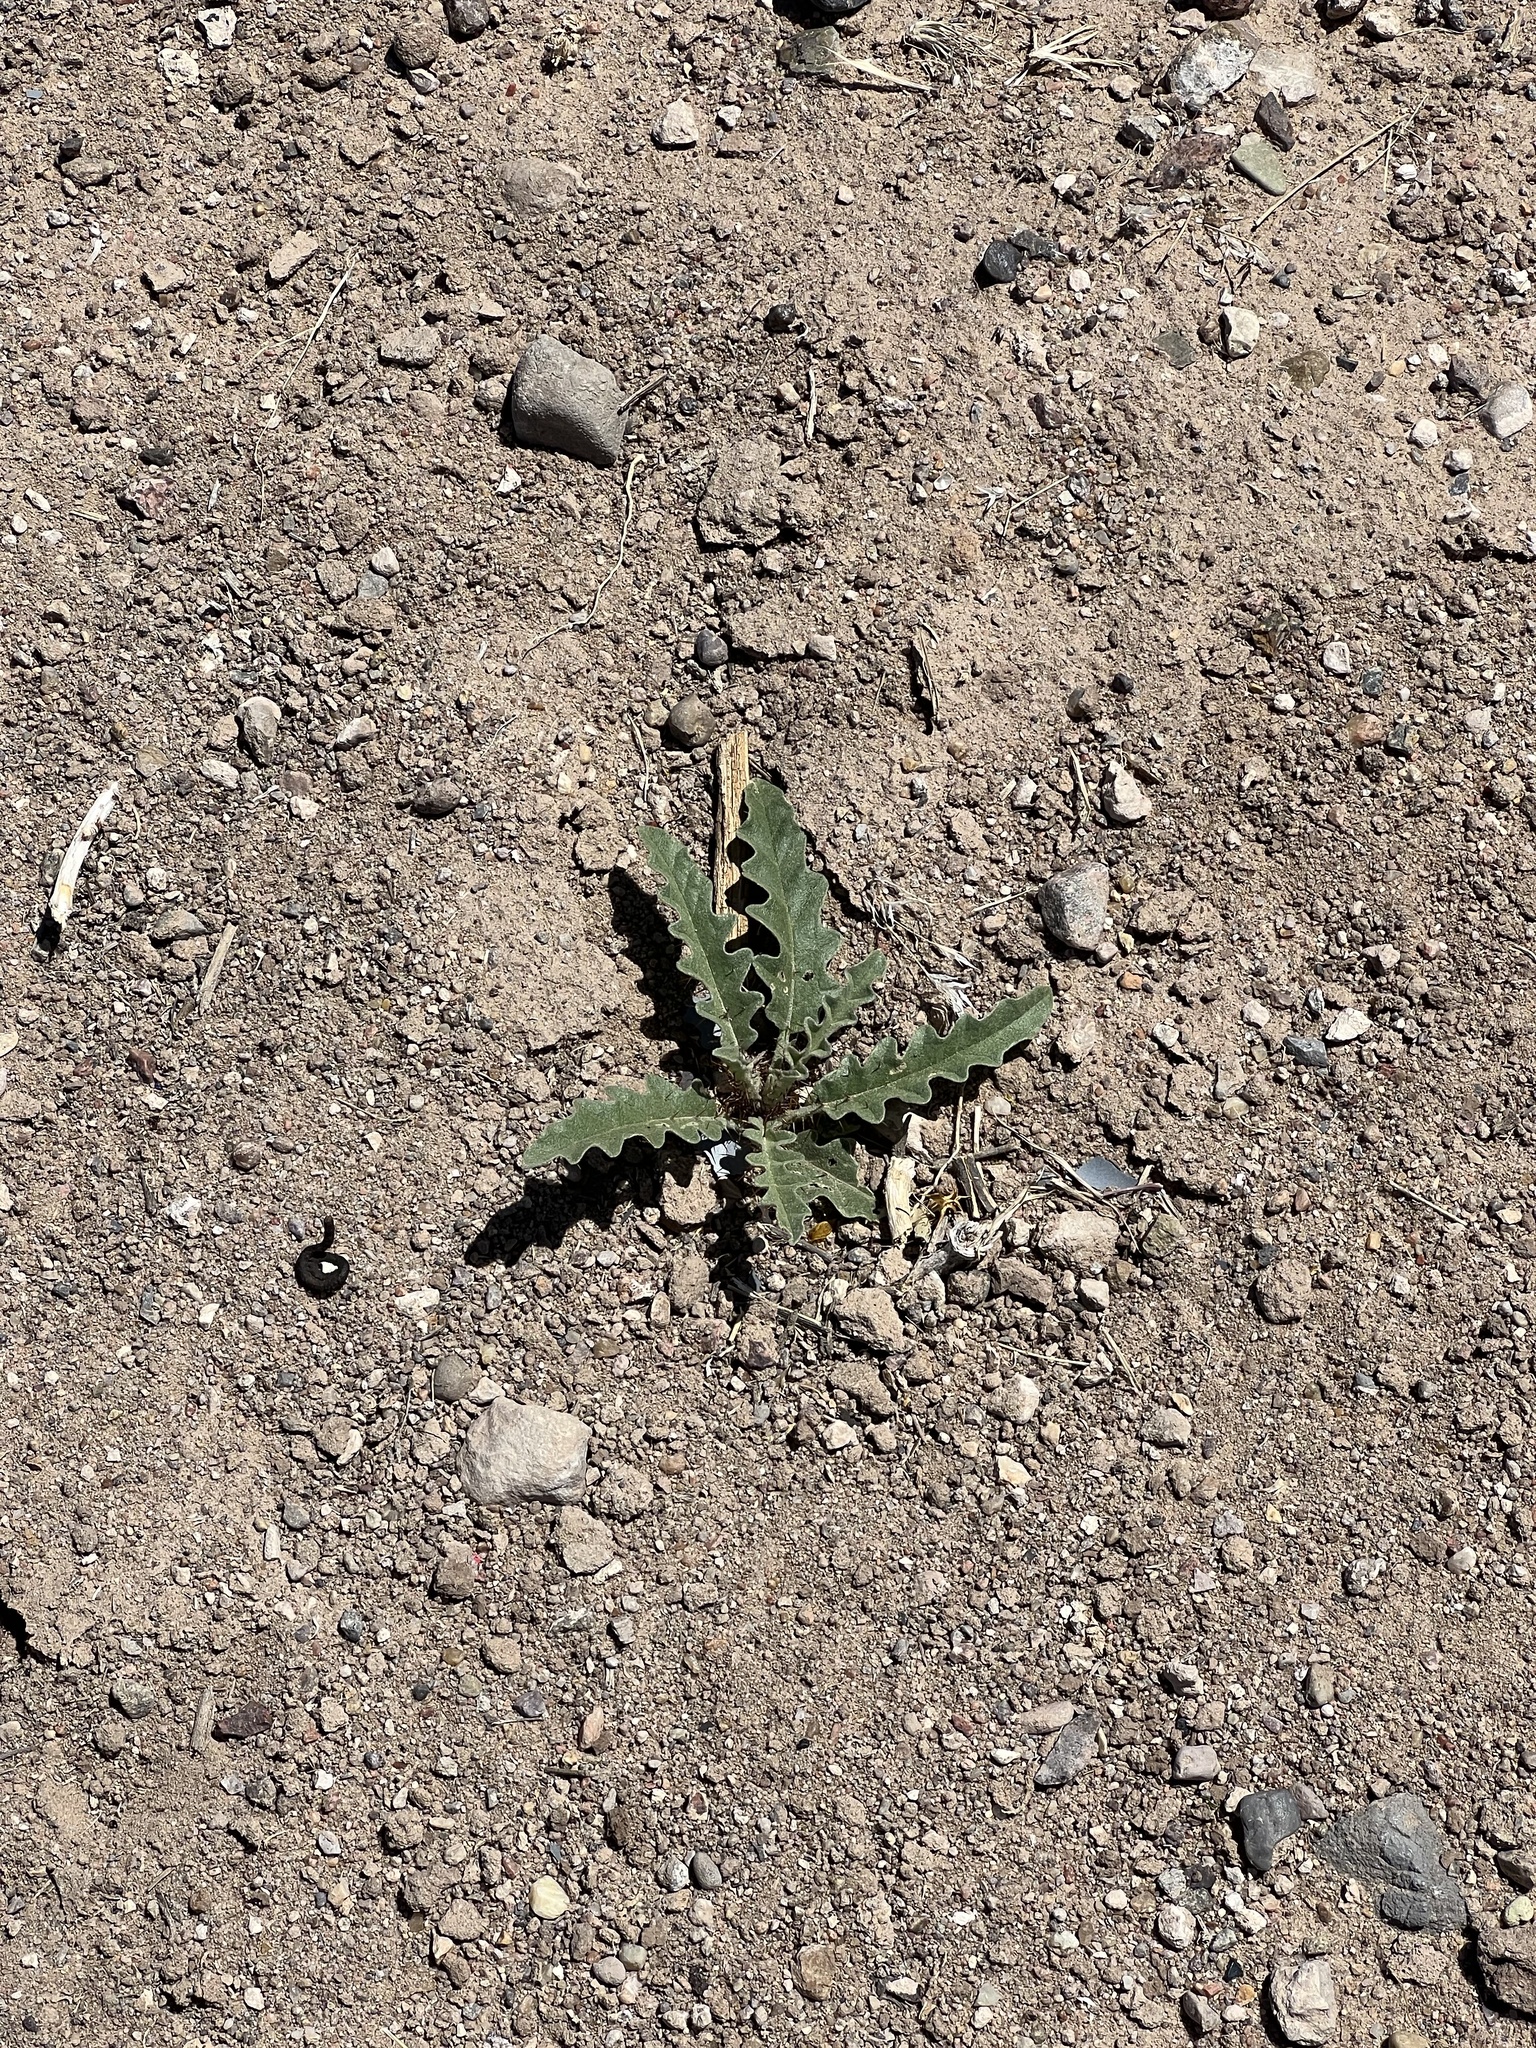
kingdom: Plantae
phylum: Tracheophyta
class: Magnoliopsida
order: Solanales
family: Solanaceae
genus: Solanum
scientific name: Solanum elaeagnifolium
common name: Silverleaf nightshade
